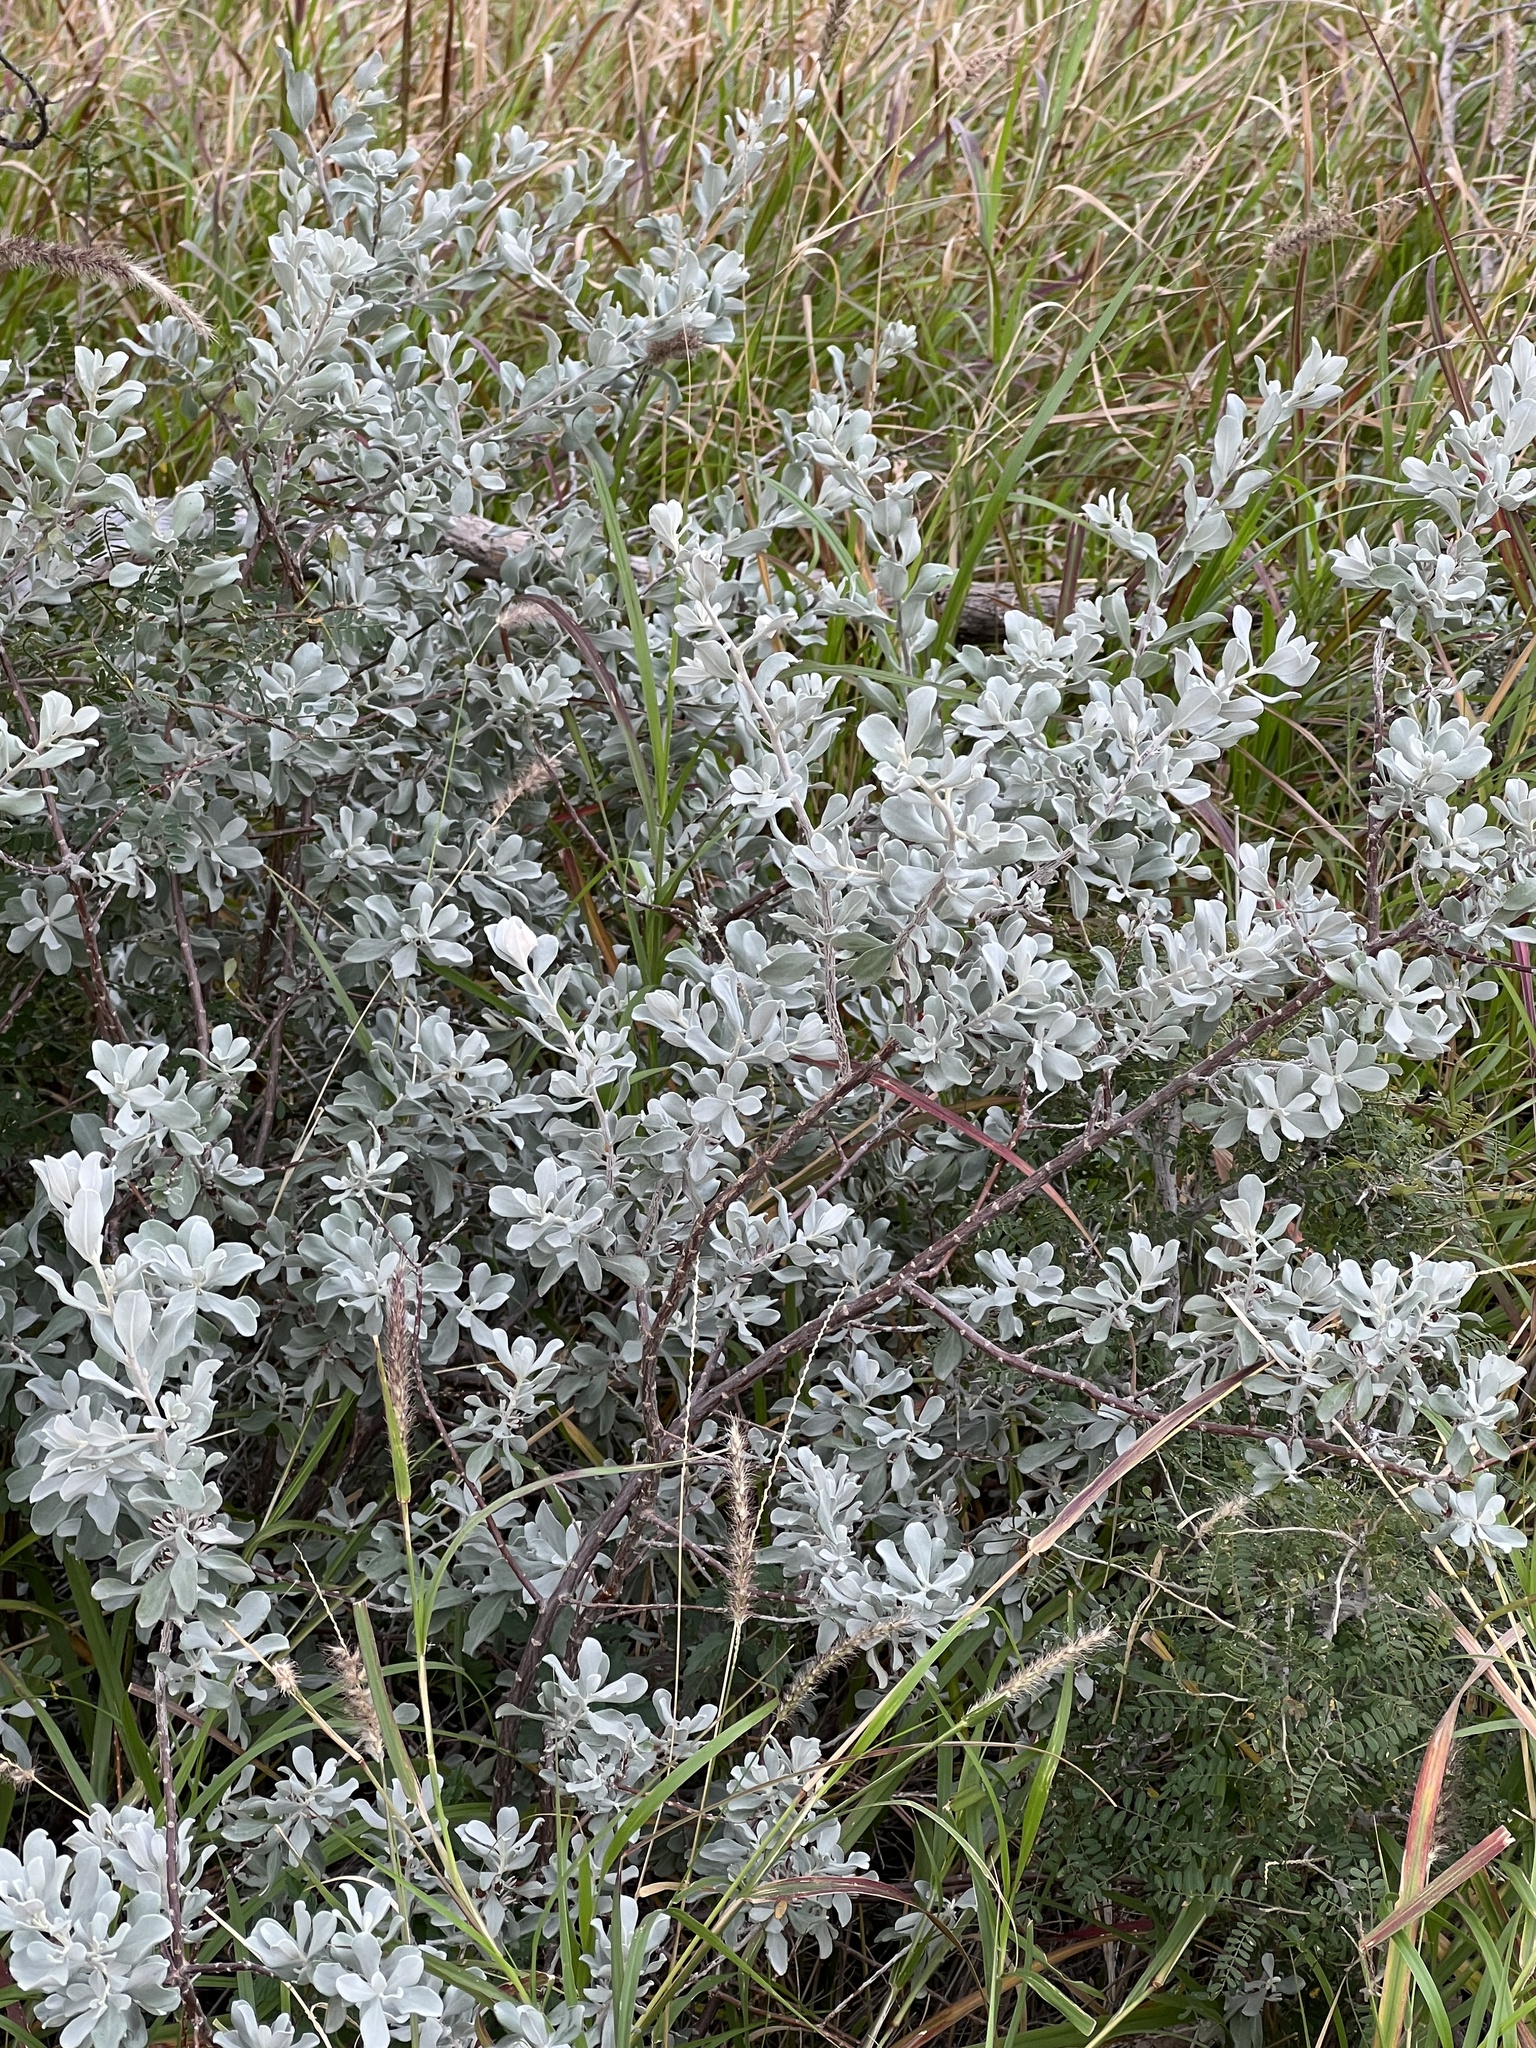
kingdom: Plantae
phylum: Tracheophyta
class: Magnoliopsida
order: Lamiales
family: Scrophulariaceae
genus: Leucophyllum
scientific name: Leucophyllum frutescens
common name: Texas silverleaf
